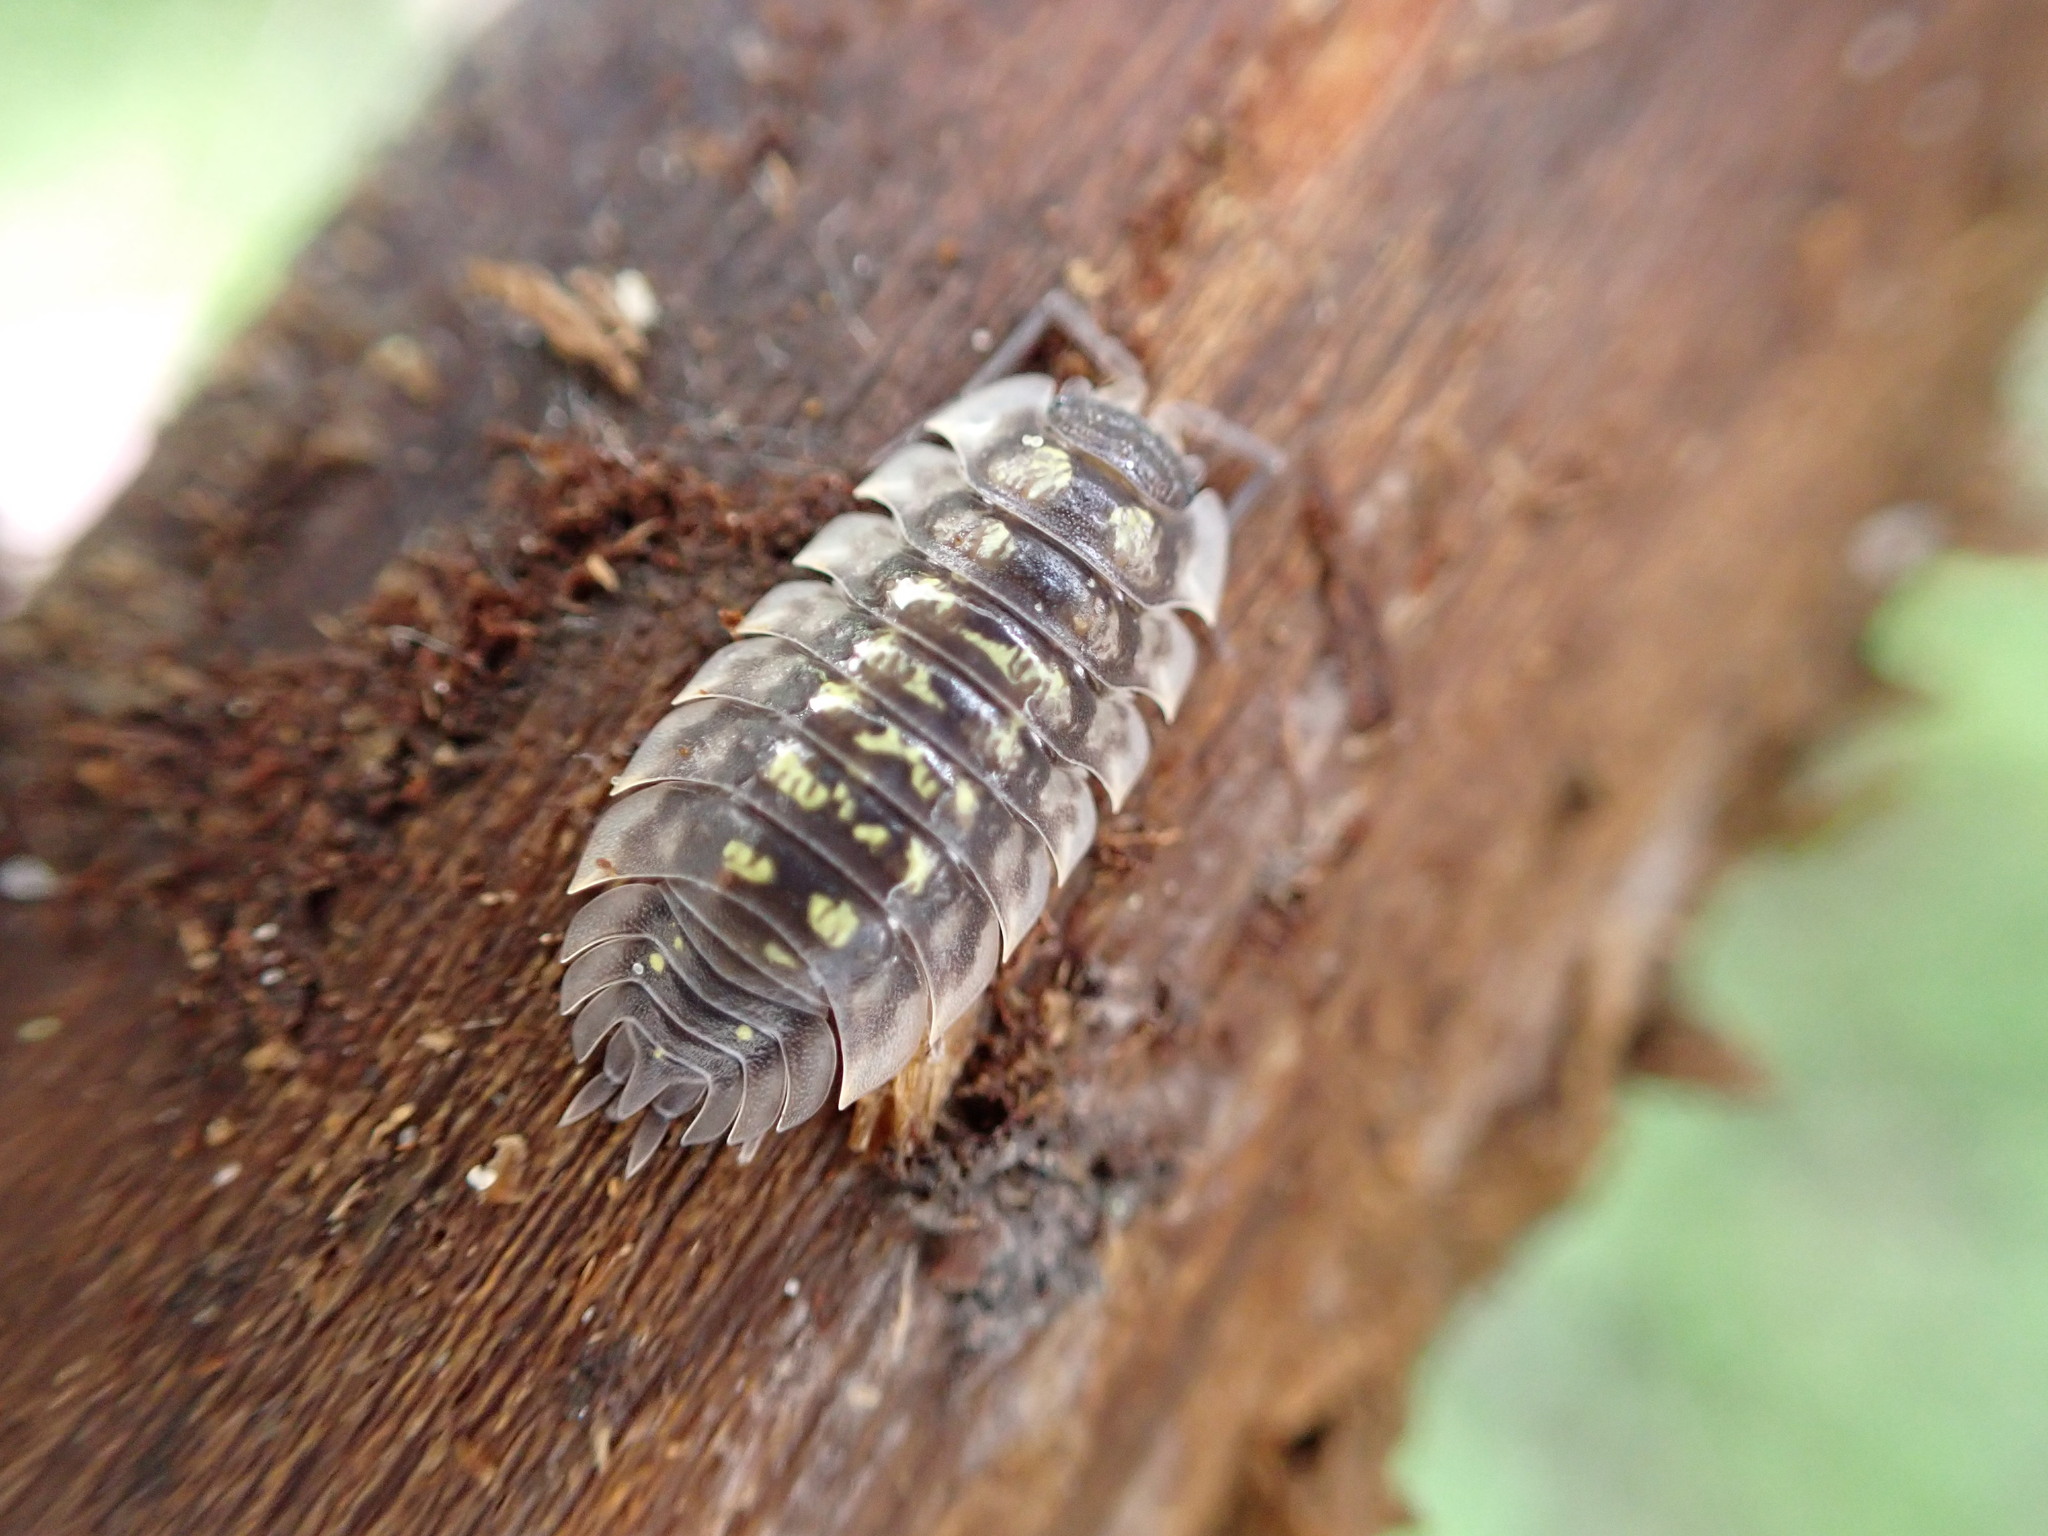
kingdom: Animalia
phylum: Arthropoda
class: Malacostraca
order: Isopoda
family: Oniscidae
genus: Oniscus
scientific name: Oniscus asellus
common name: Common shiny woodlouse
